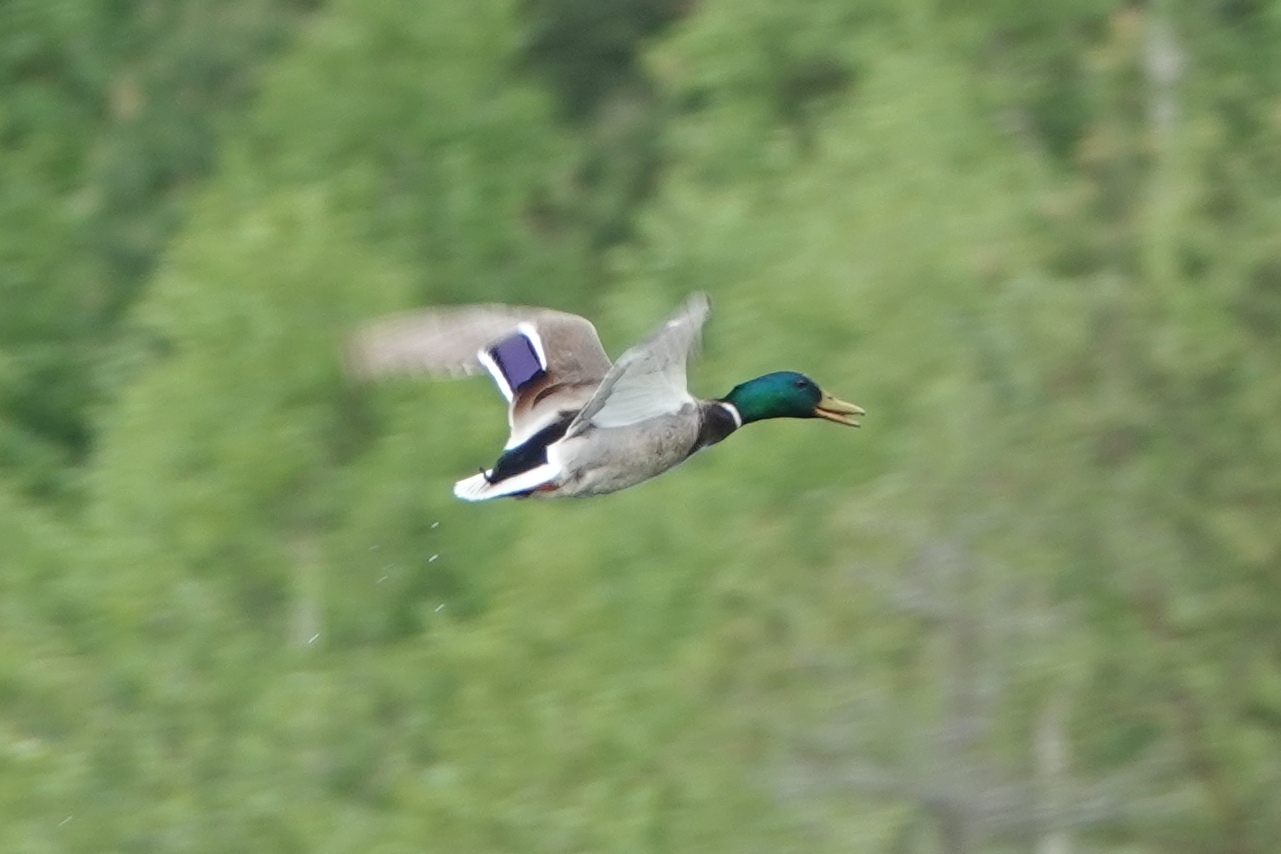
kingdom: Animalia
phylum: Chordata
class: Aves
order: Anseriformes
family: Anatidae
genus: Anas
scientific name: Anas platyrhynchos
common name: Mallard
